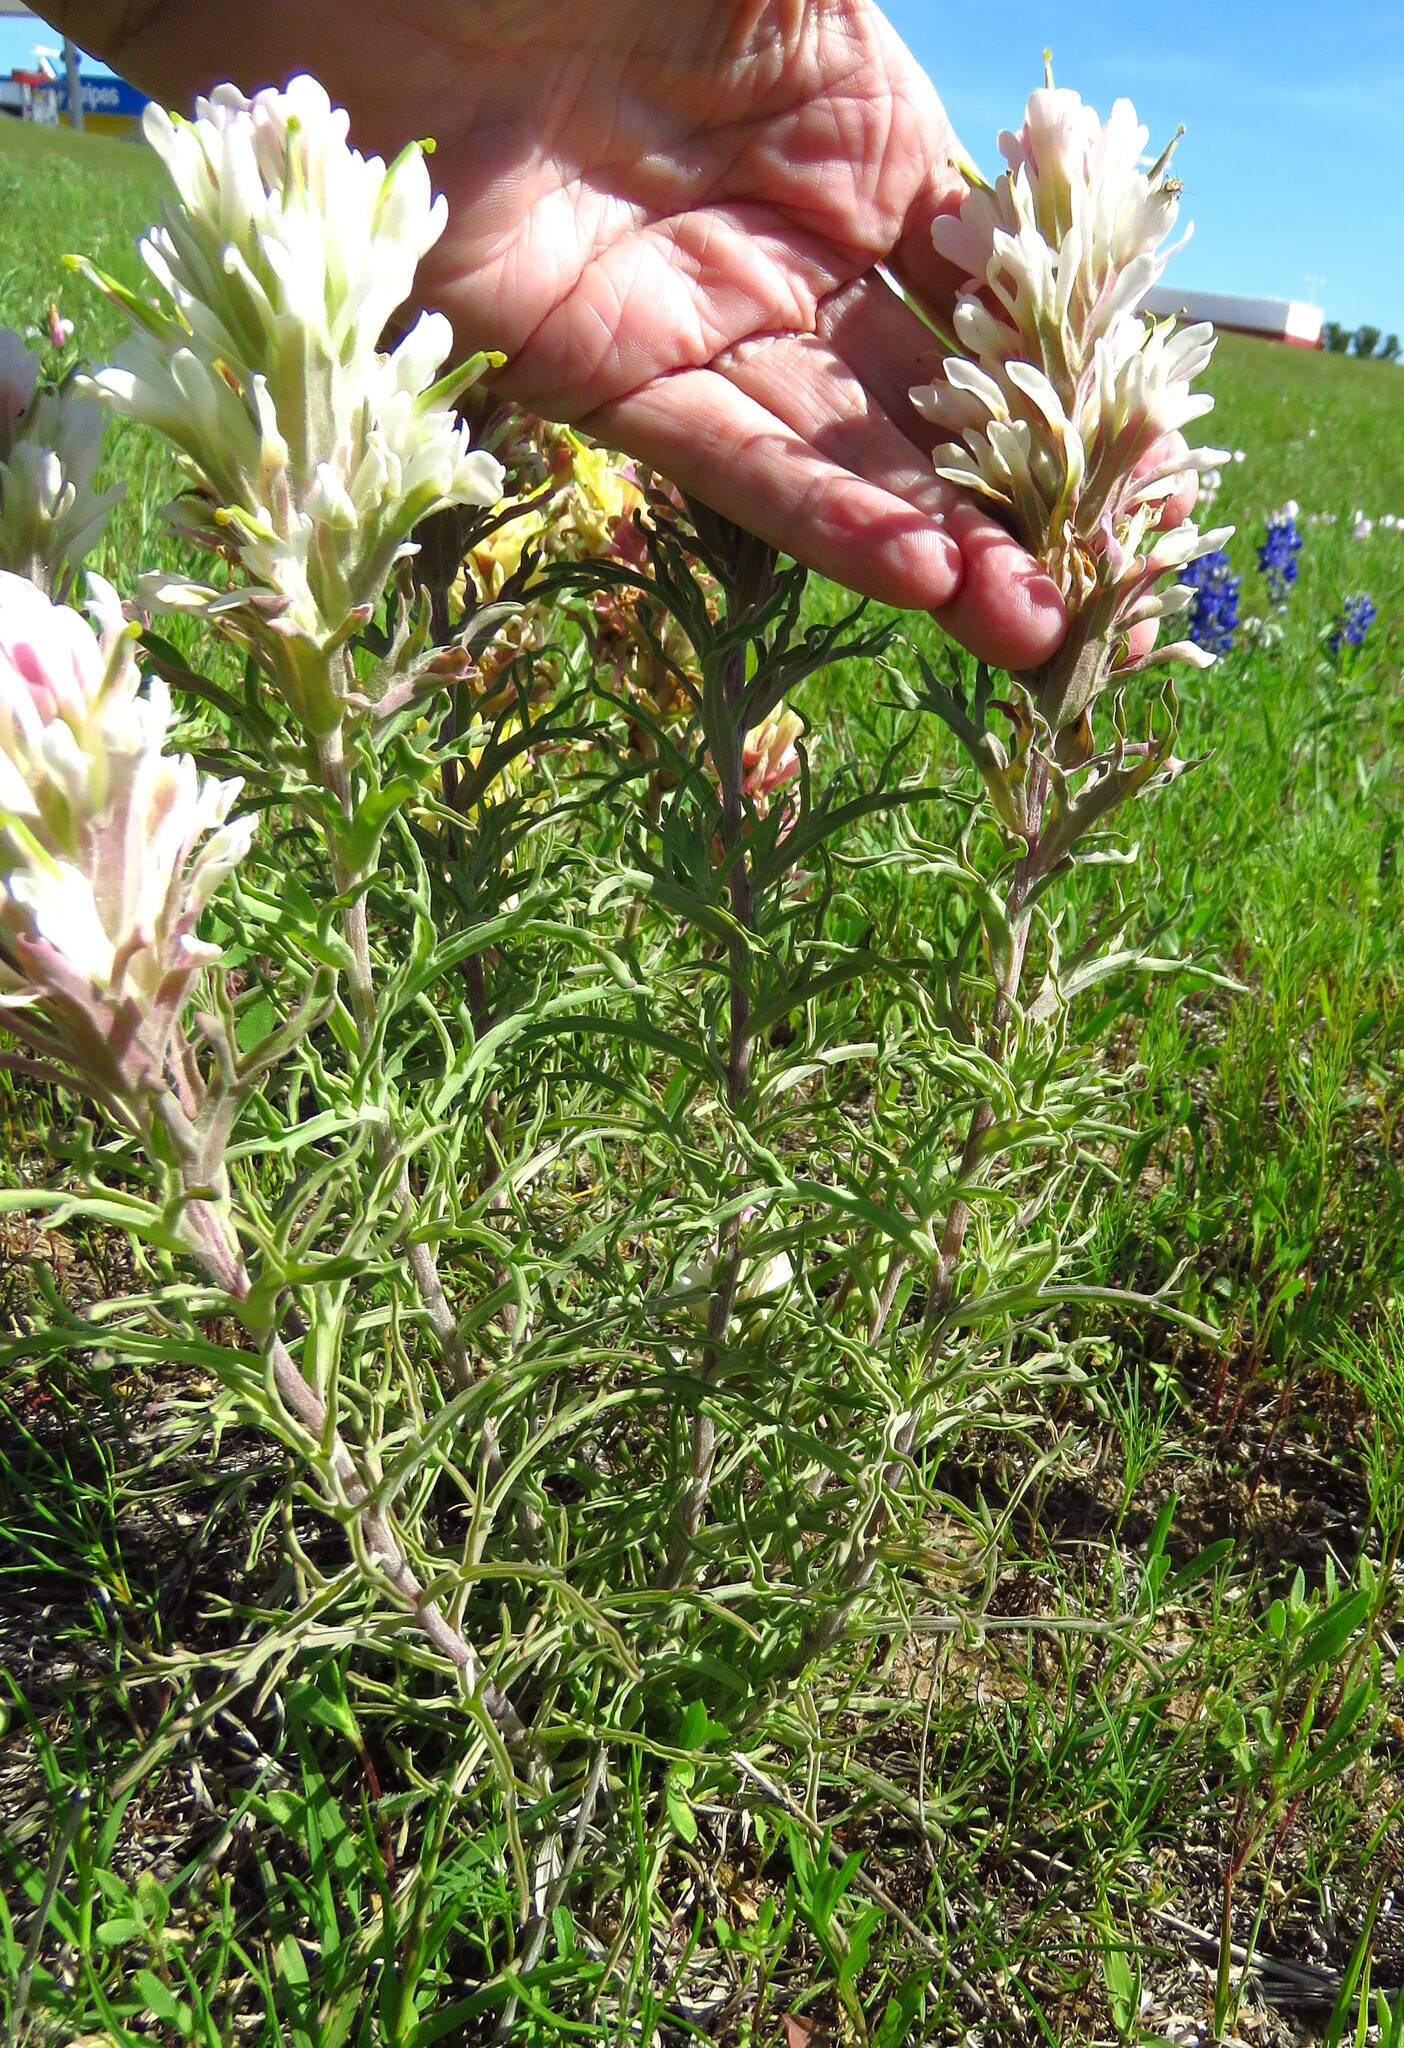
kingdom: Plantae
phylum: Tracheophyta
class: Magnoliopsida
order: Lamiales
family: Orobanchaceae
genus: Castilleja
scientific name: Castilleja purpurea
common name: Plains paintbrush
